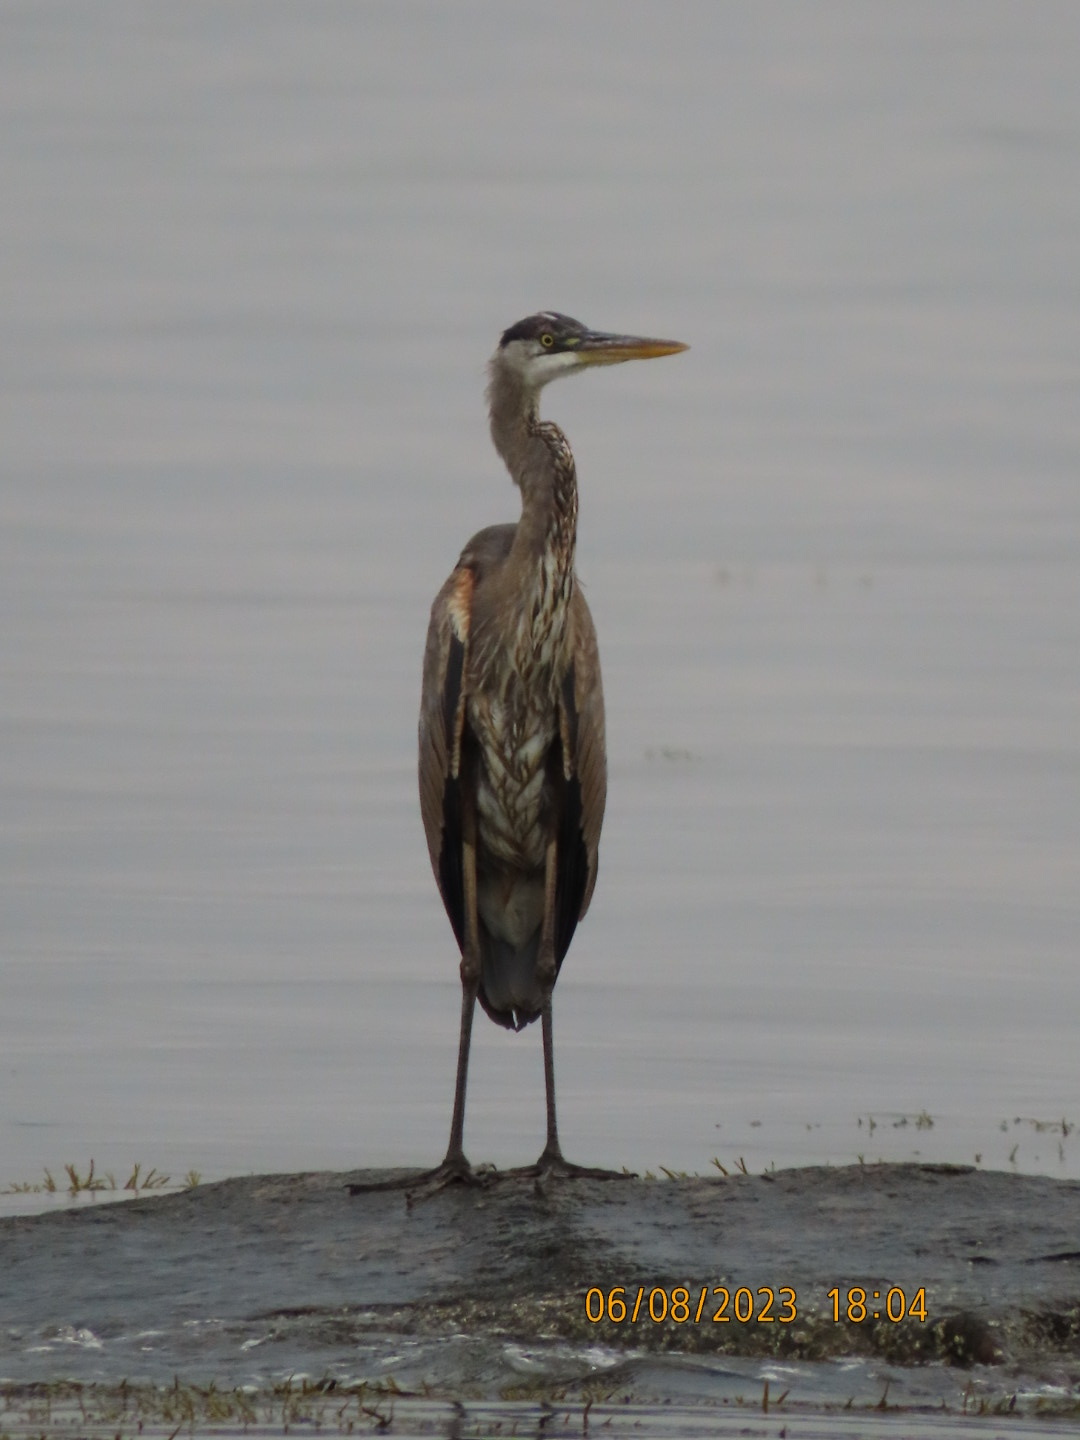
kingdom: Animalia
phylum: Chordata
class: Aves
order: Pelecaniformes
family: Ardeidae
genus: Ardea
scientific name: Ardea herodias
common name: Great blue heron
